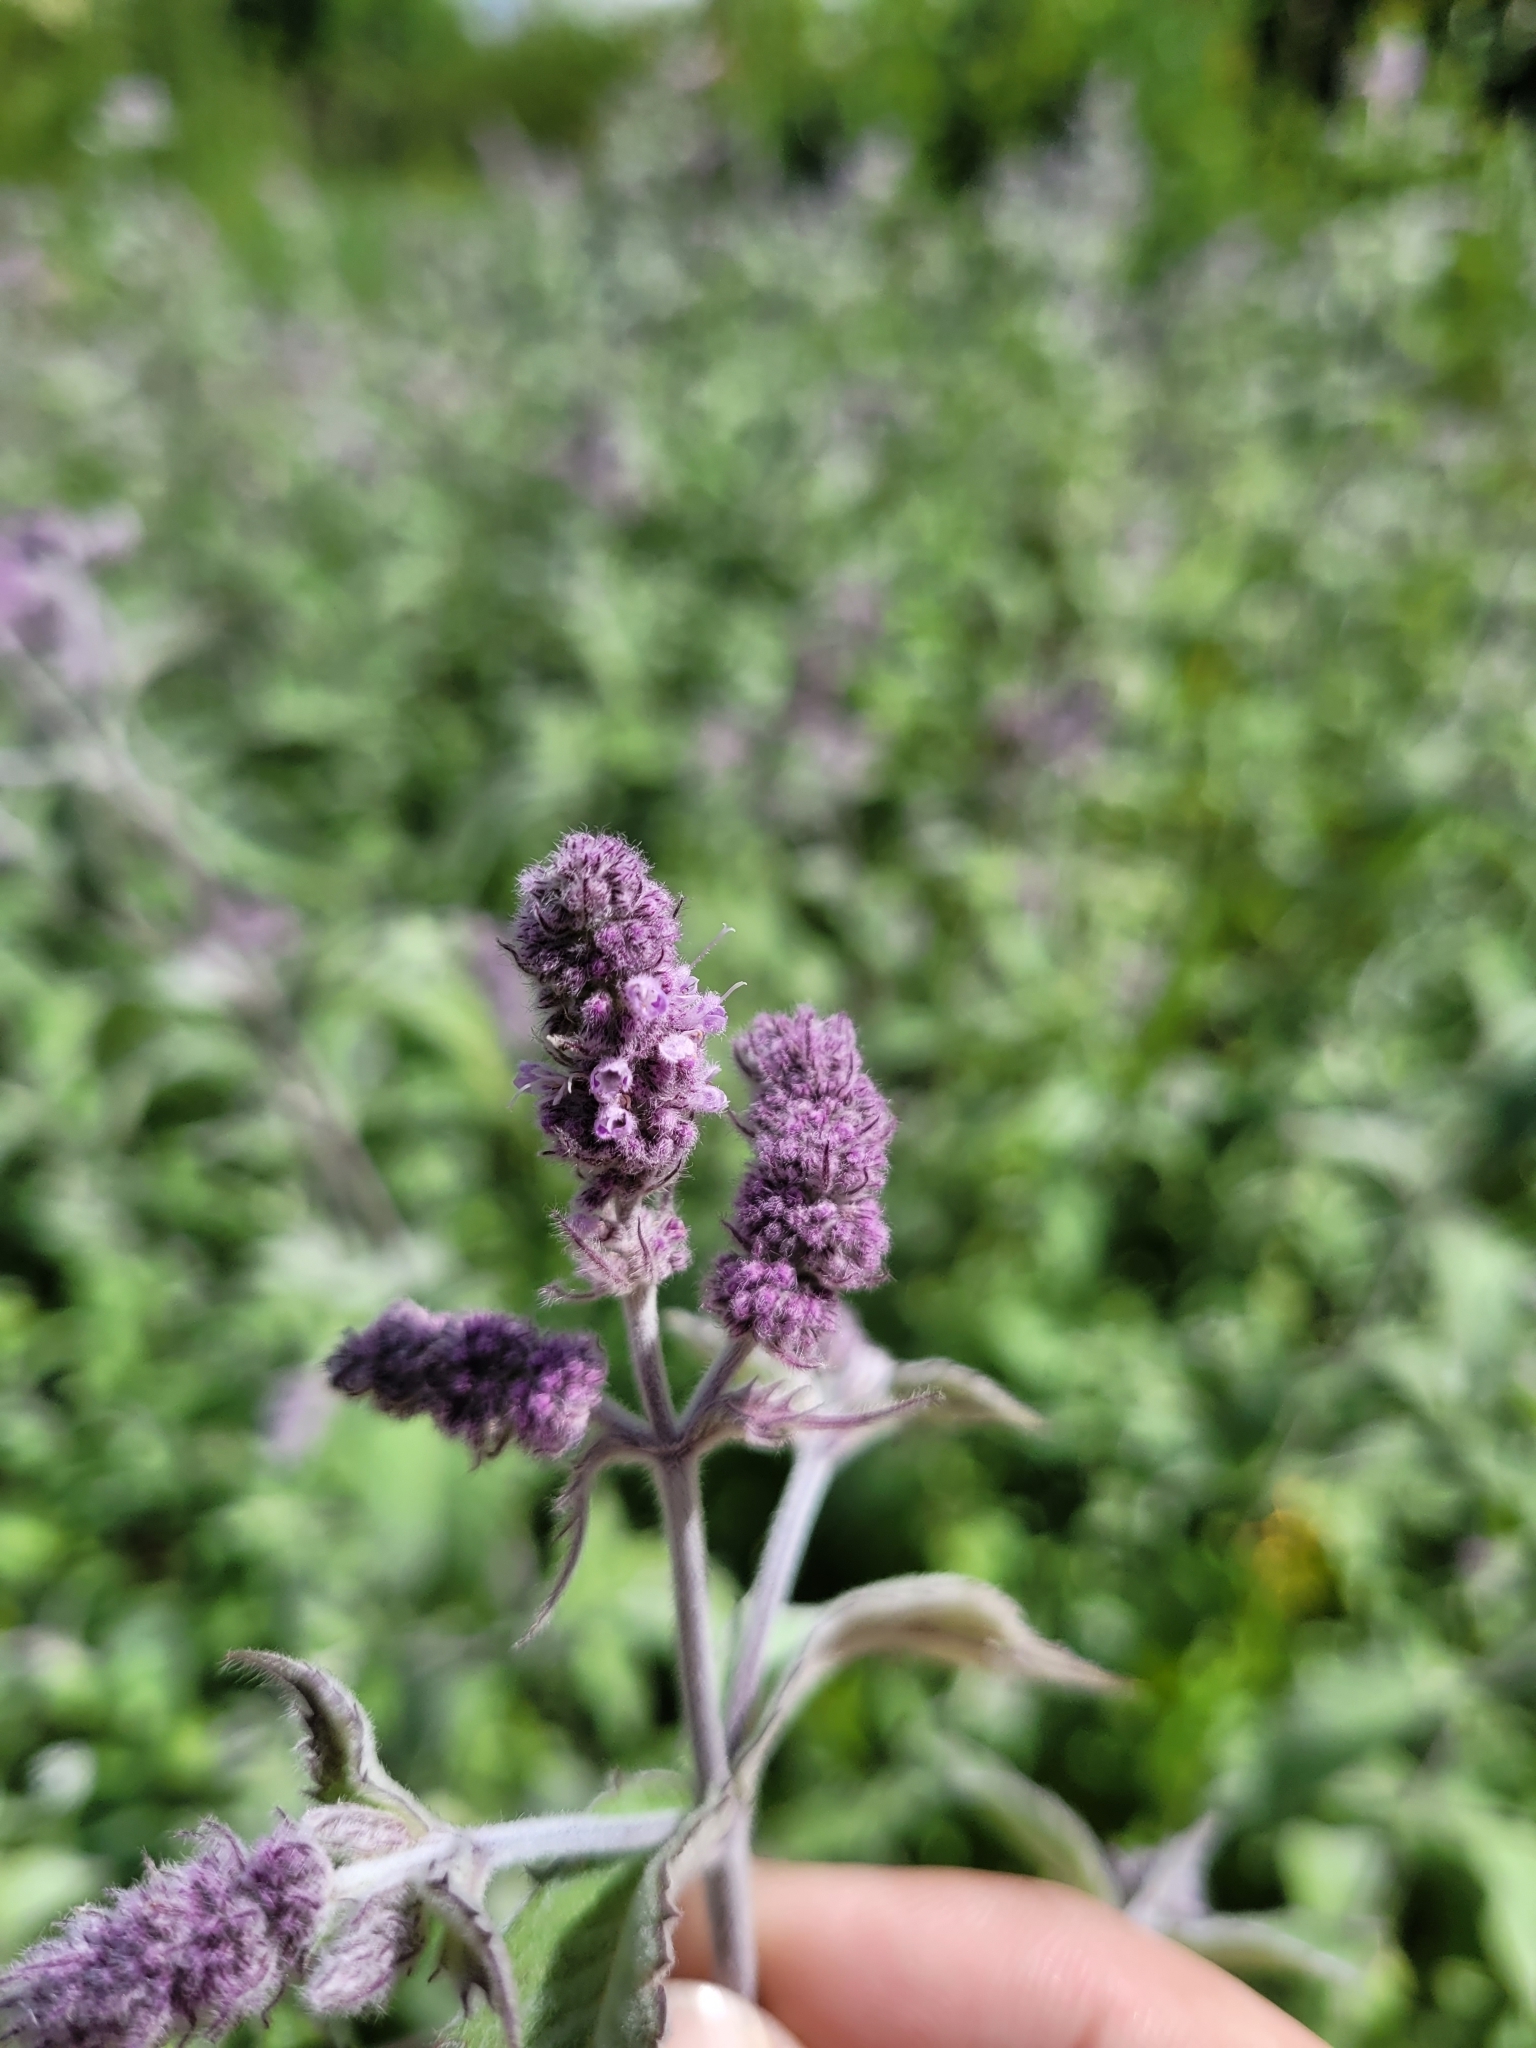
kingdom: Plantae
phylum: Tracheophyta
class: Magnoliopsida
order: Lamiales
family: Lamiaceae
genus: Mentha
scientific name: Mentha longifolia
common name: Horse mint
